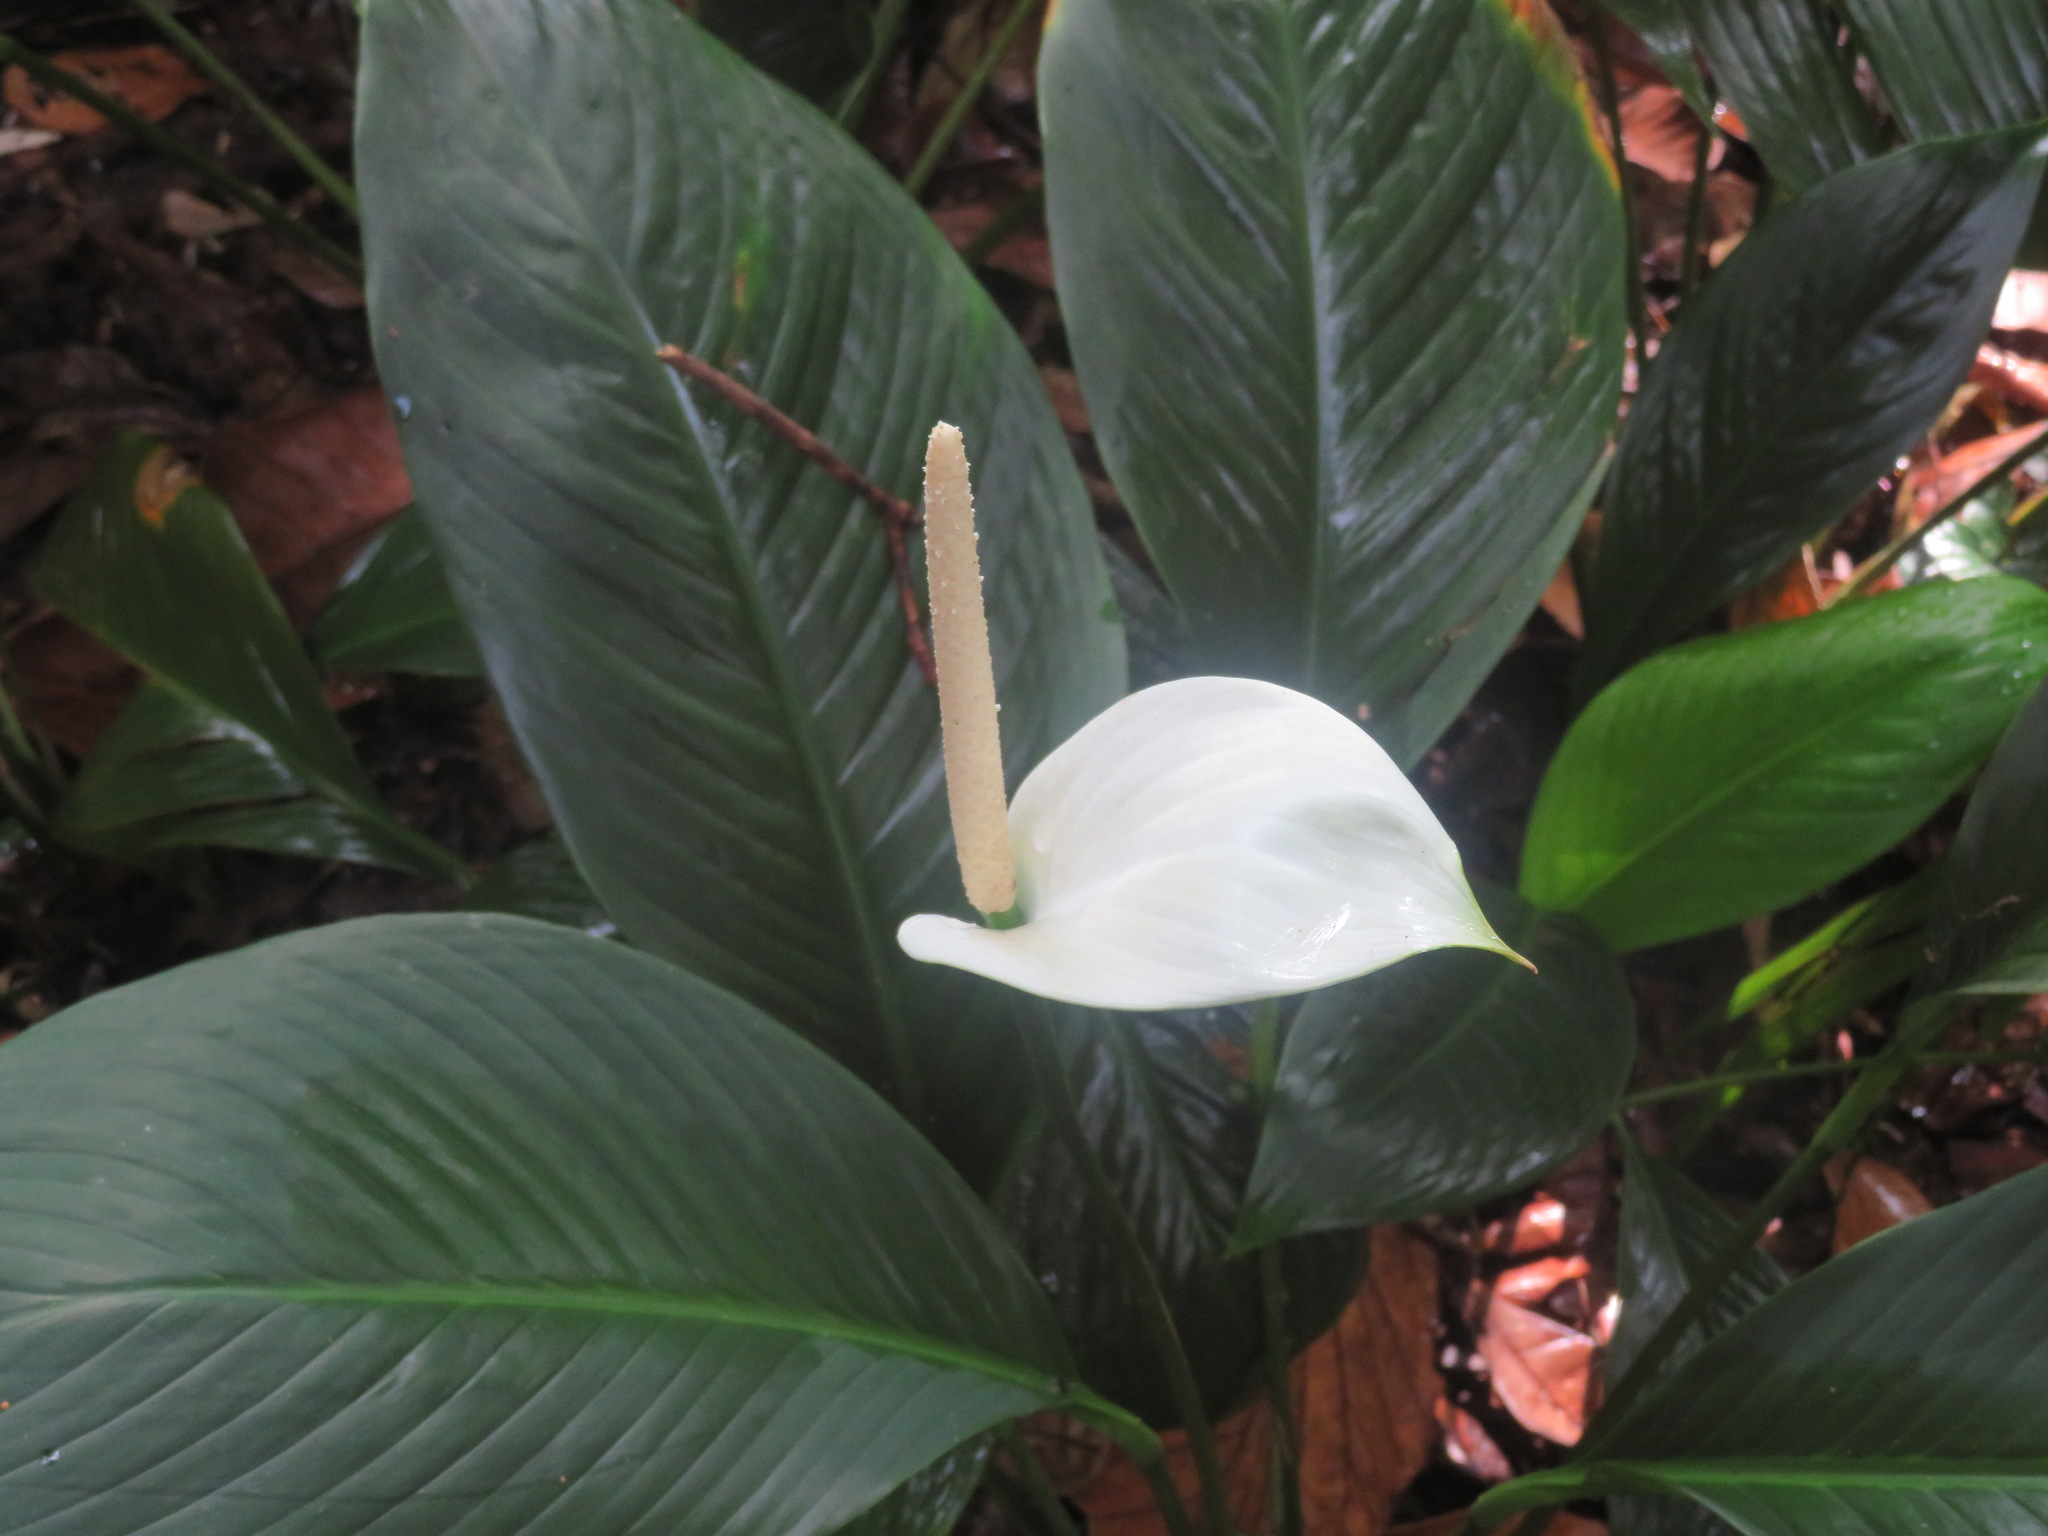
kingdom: Plantae
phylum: Tracheophyta
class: Liliopsida
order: Alismatales
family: Araceae
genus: Spathiphyllum
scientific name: Spathiphyllum wallisii
